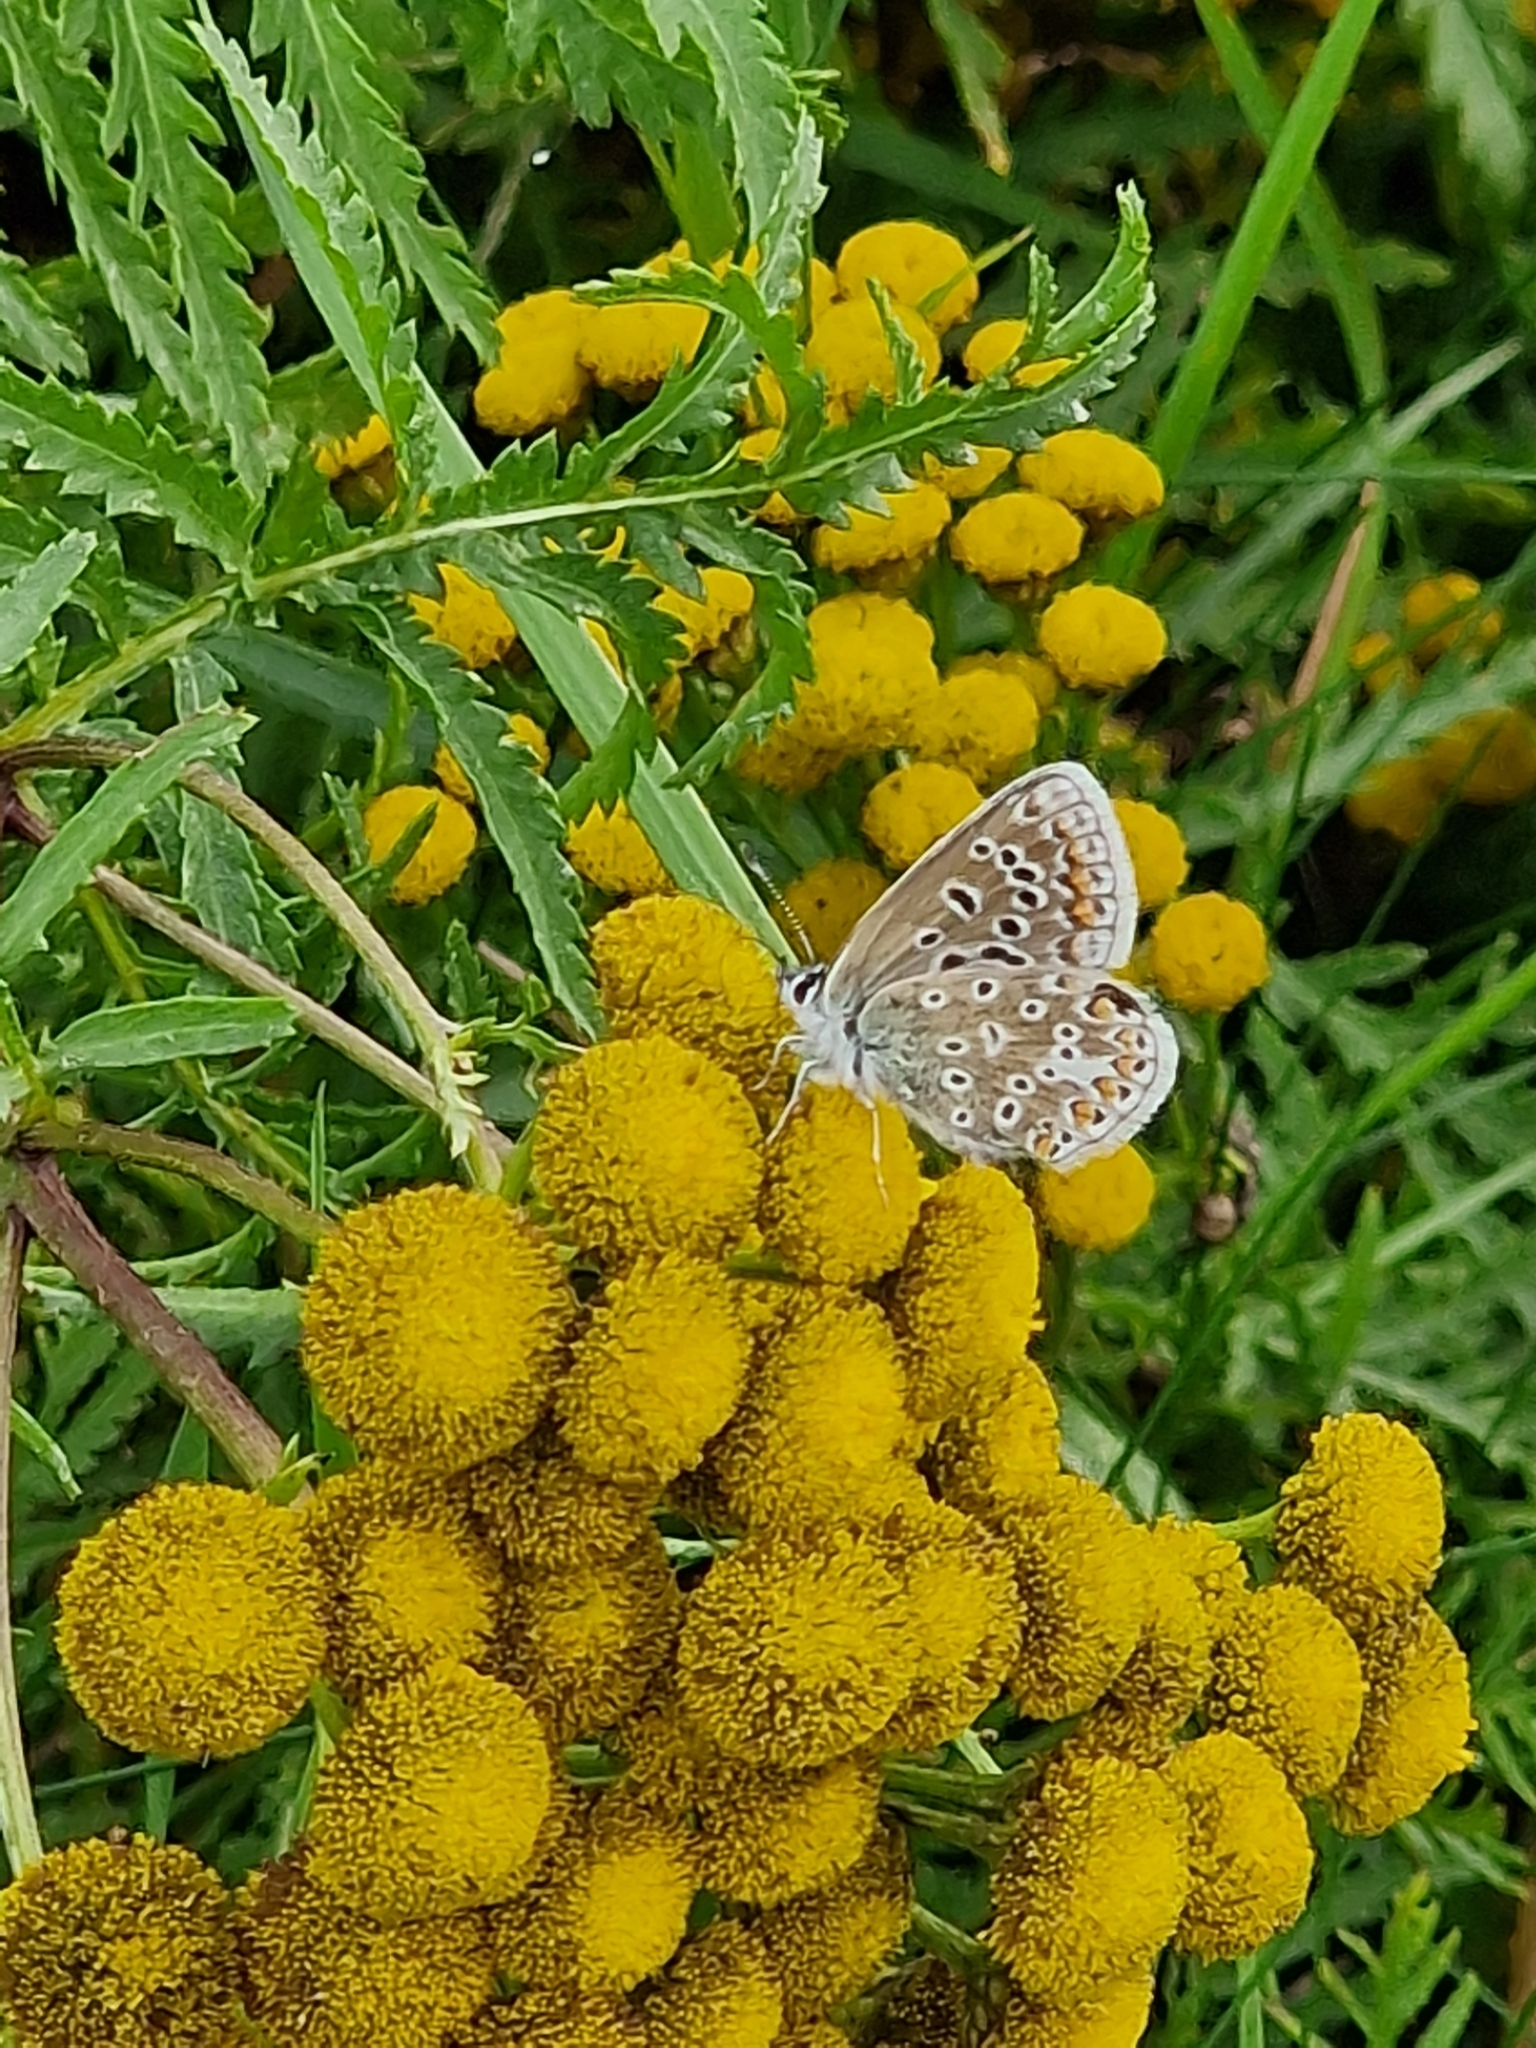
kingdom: Animalia
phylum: Arthropoda
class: Insecta
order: Lepidoptera
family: Lycaenidae
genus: Polyommatus
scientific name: Polyommatus icarus
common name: Common blue
